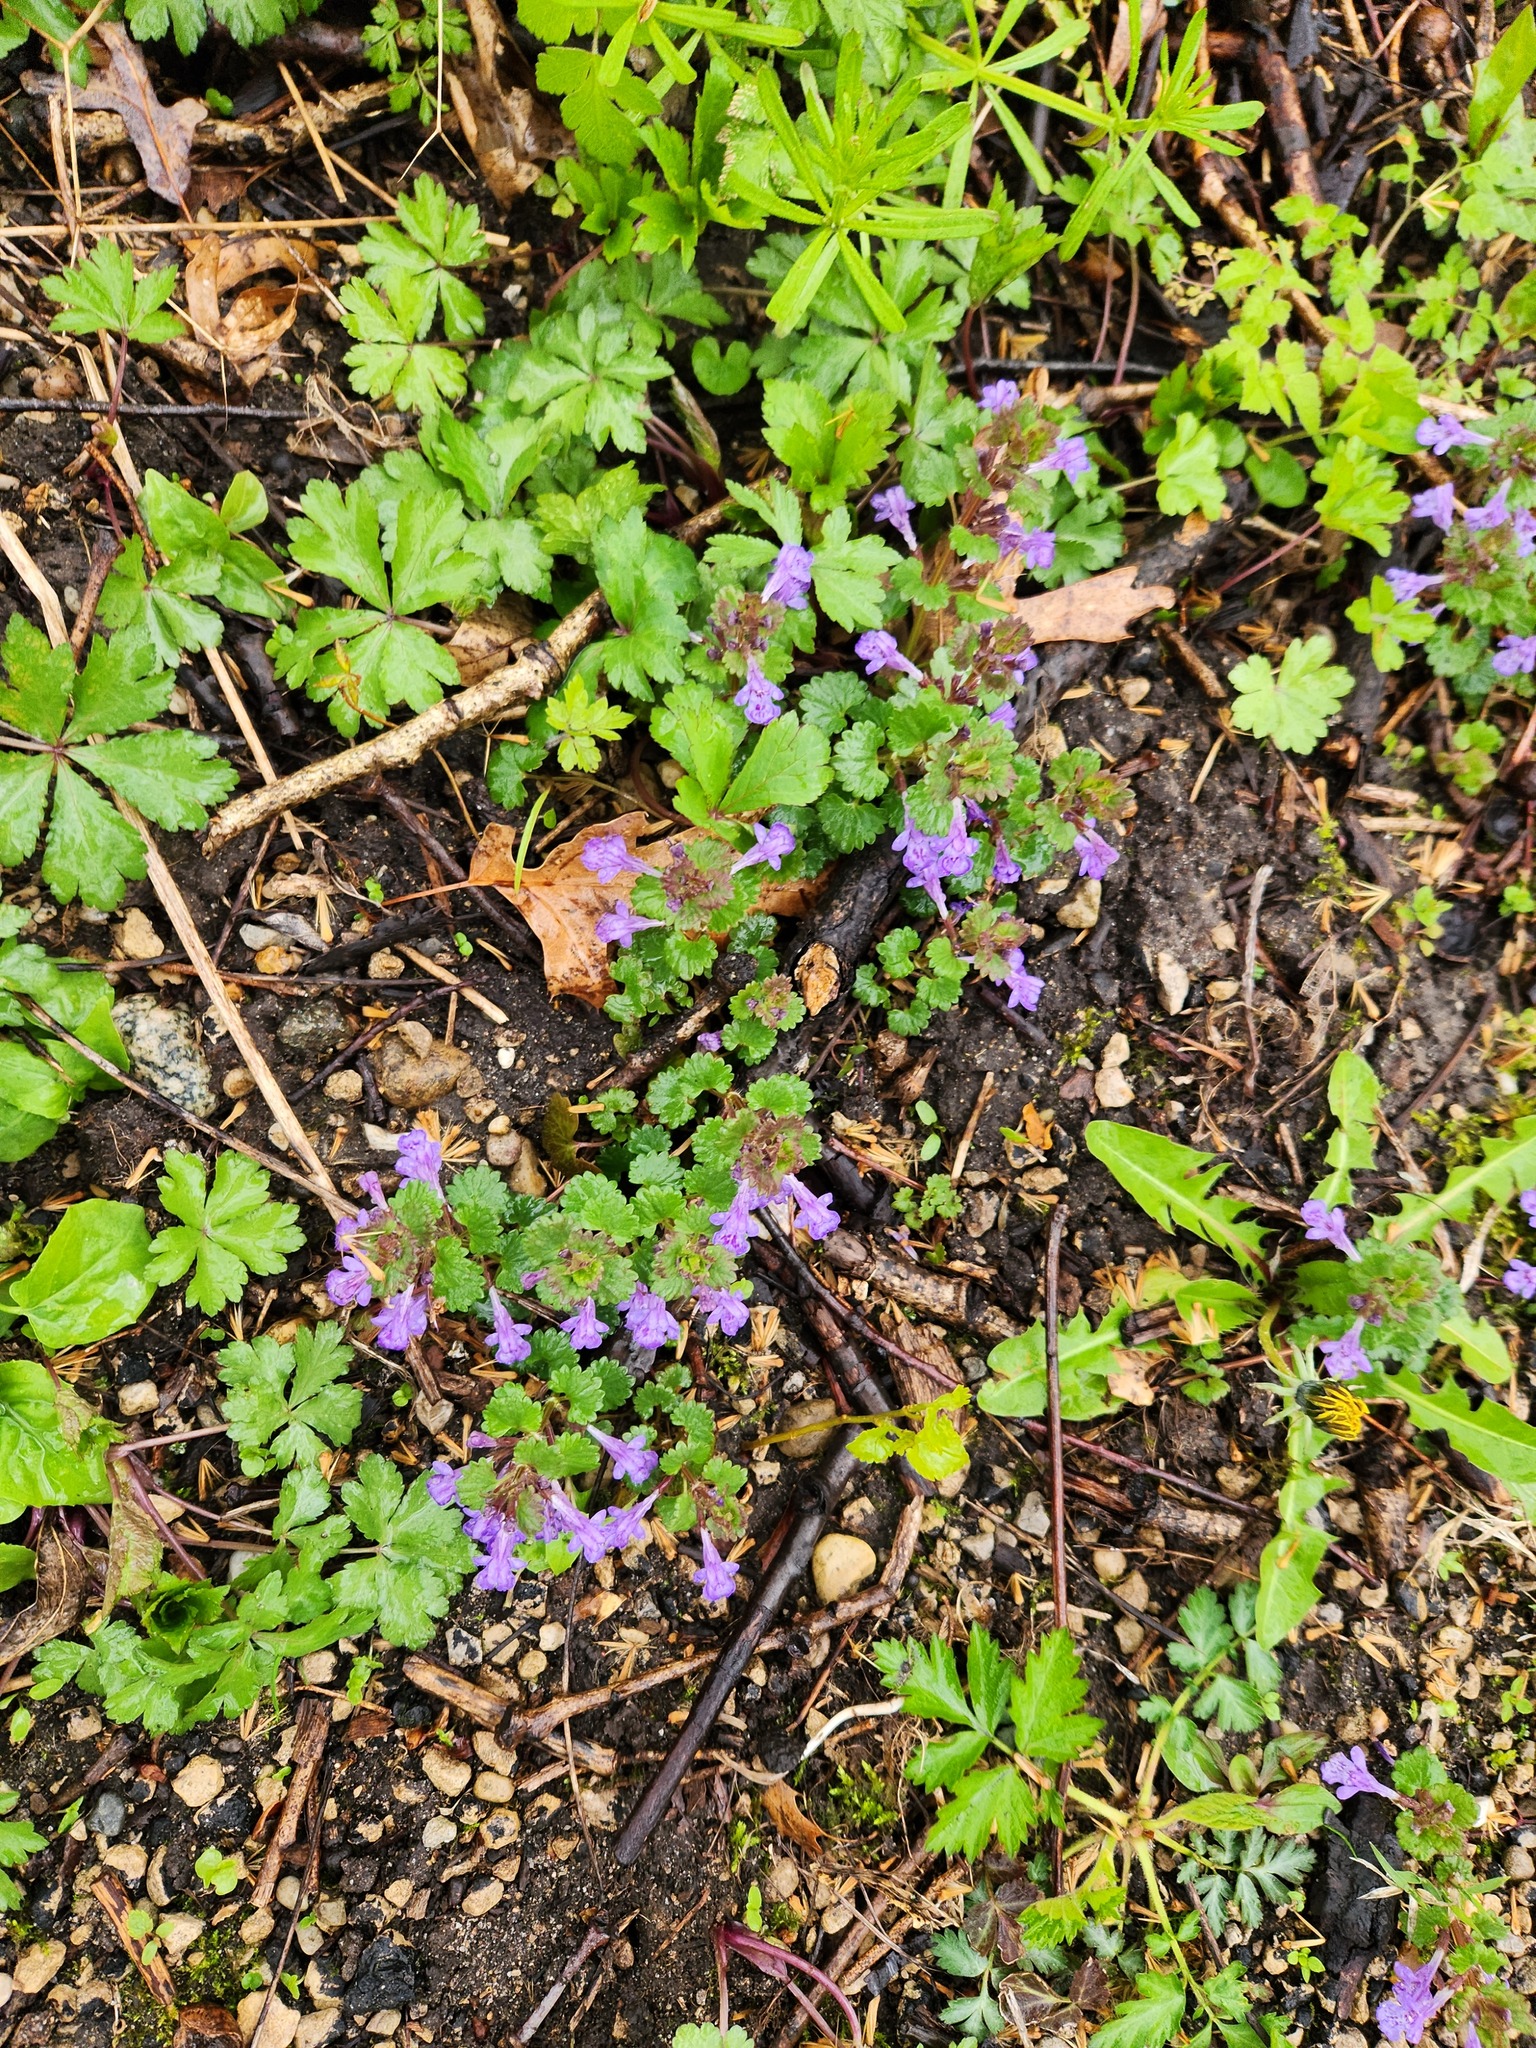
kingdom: Plantae
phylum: Tracheophyta
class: Magnoliopsida
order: Lamiales
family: Lamiaceae
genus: Glechoma
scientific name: Glechoma hederacea
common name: Ground ivy
